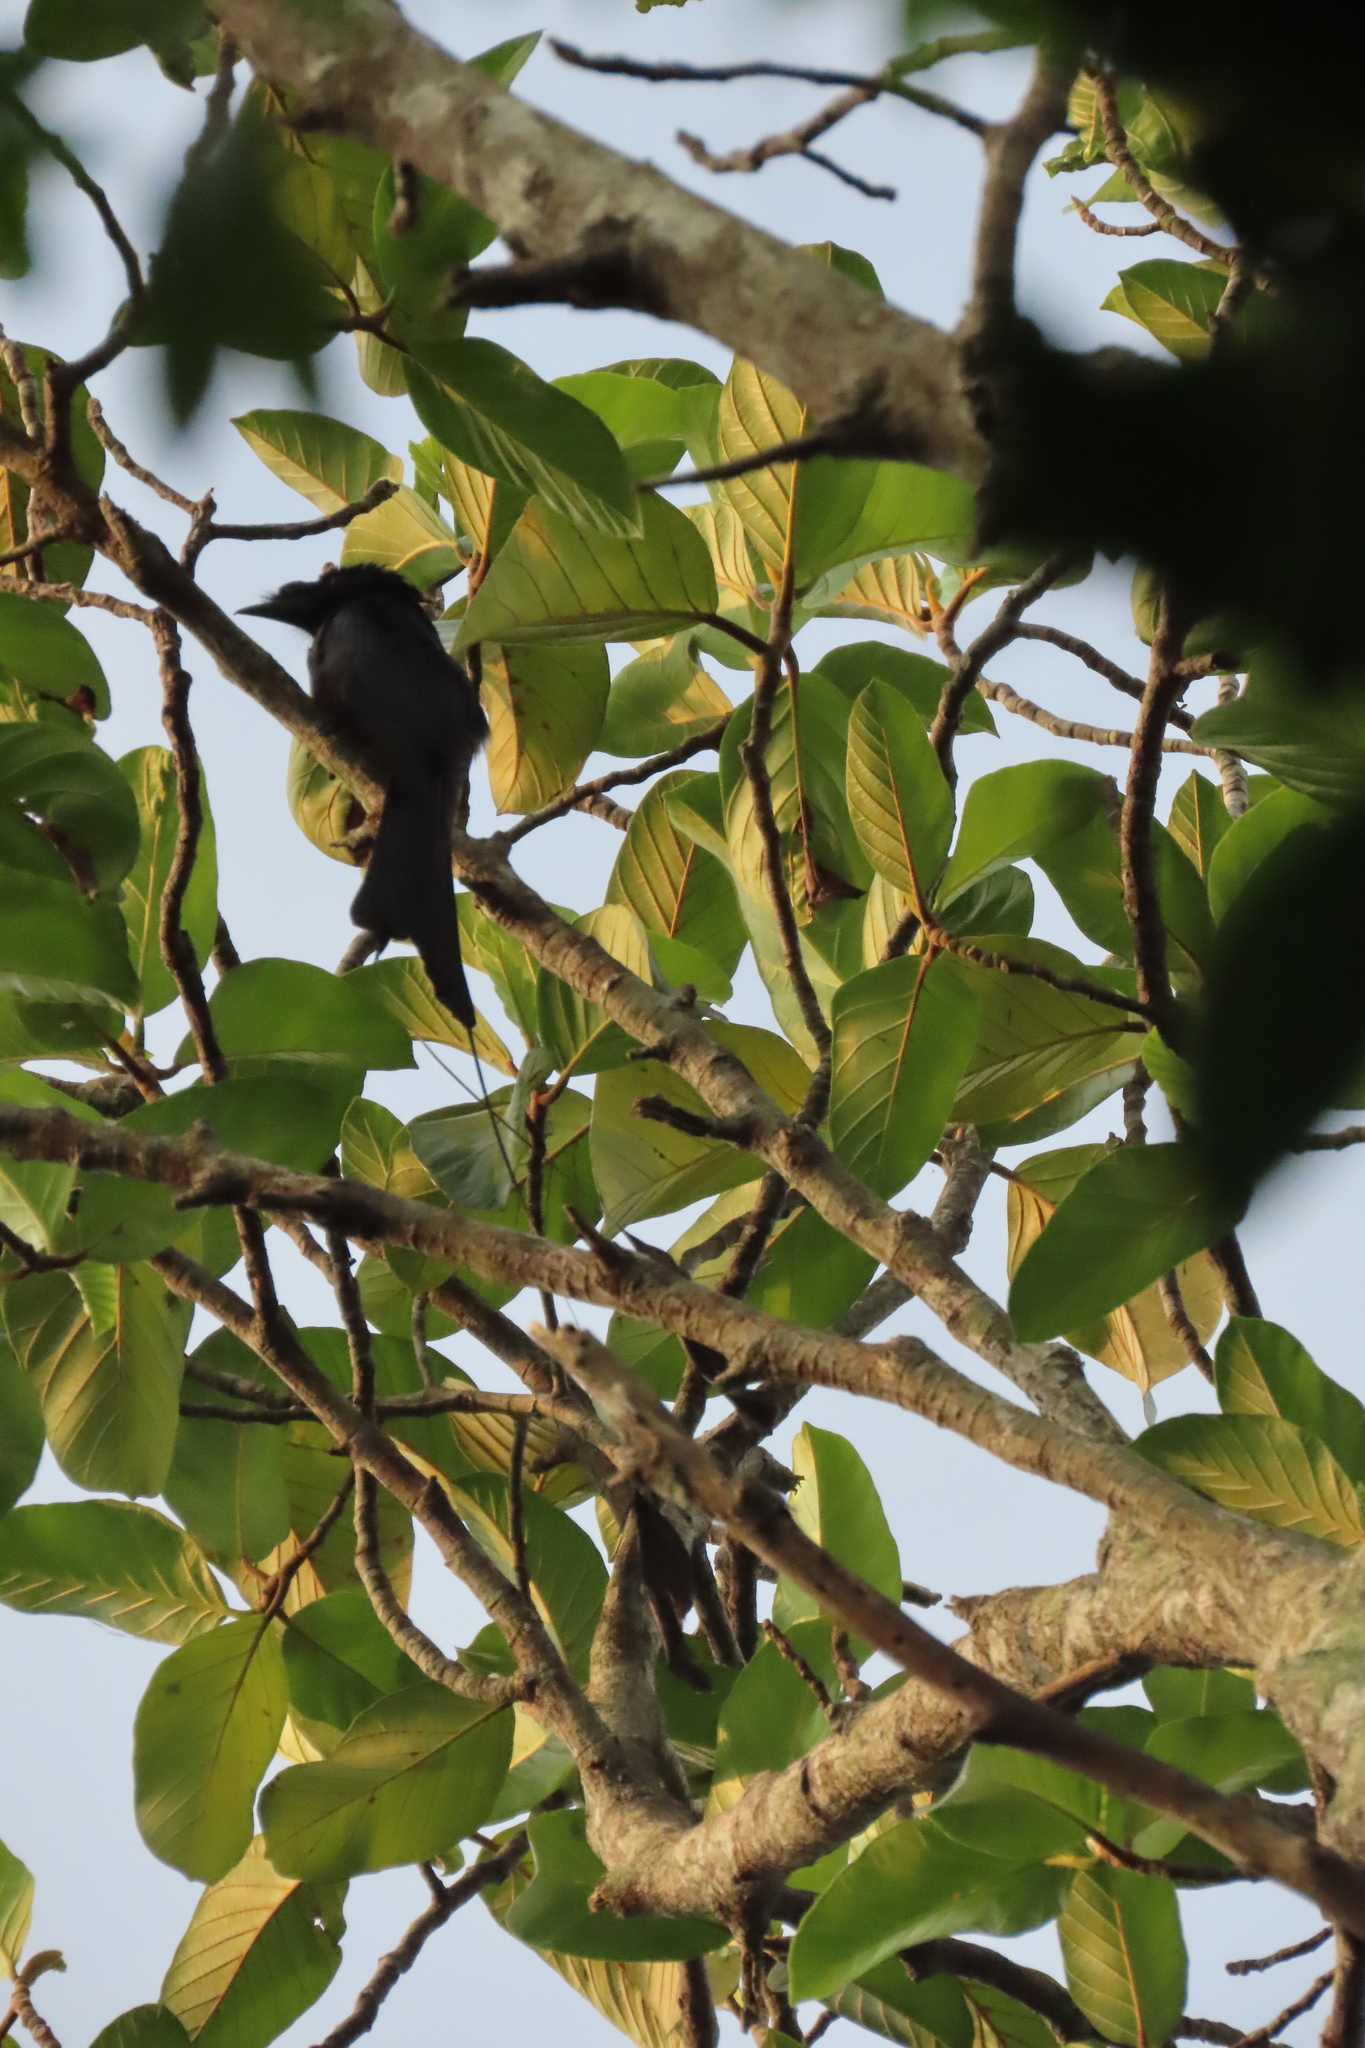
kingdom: Animalia
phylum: Chordata
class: Aves
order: Passeriformes
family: Dicruridae
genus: Dicrurus
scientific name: Dicrurus paradiseus
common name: Greater racket-tailed drongo
